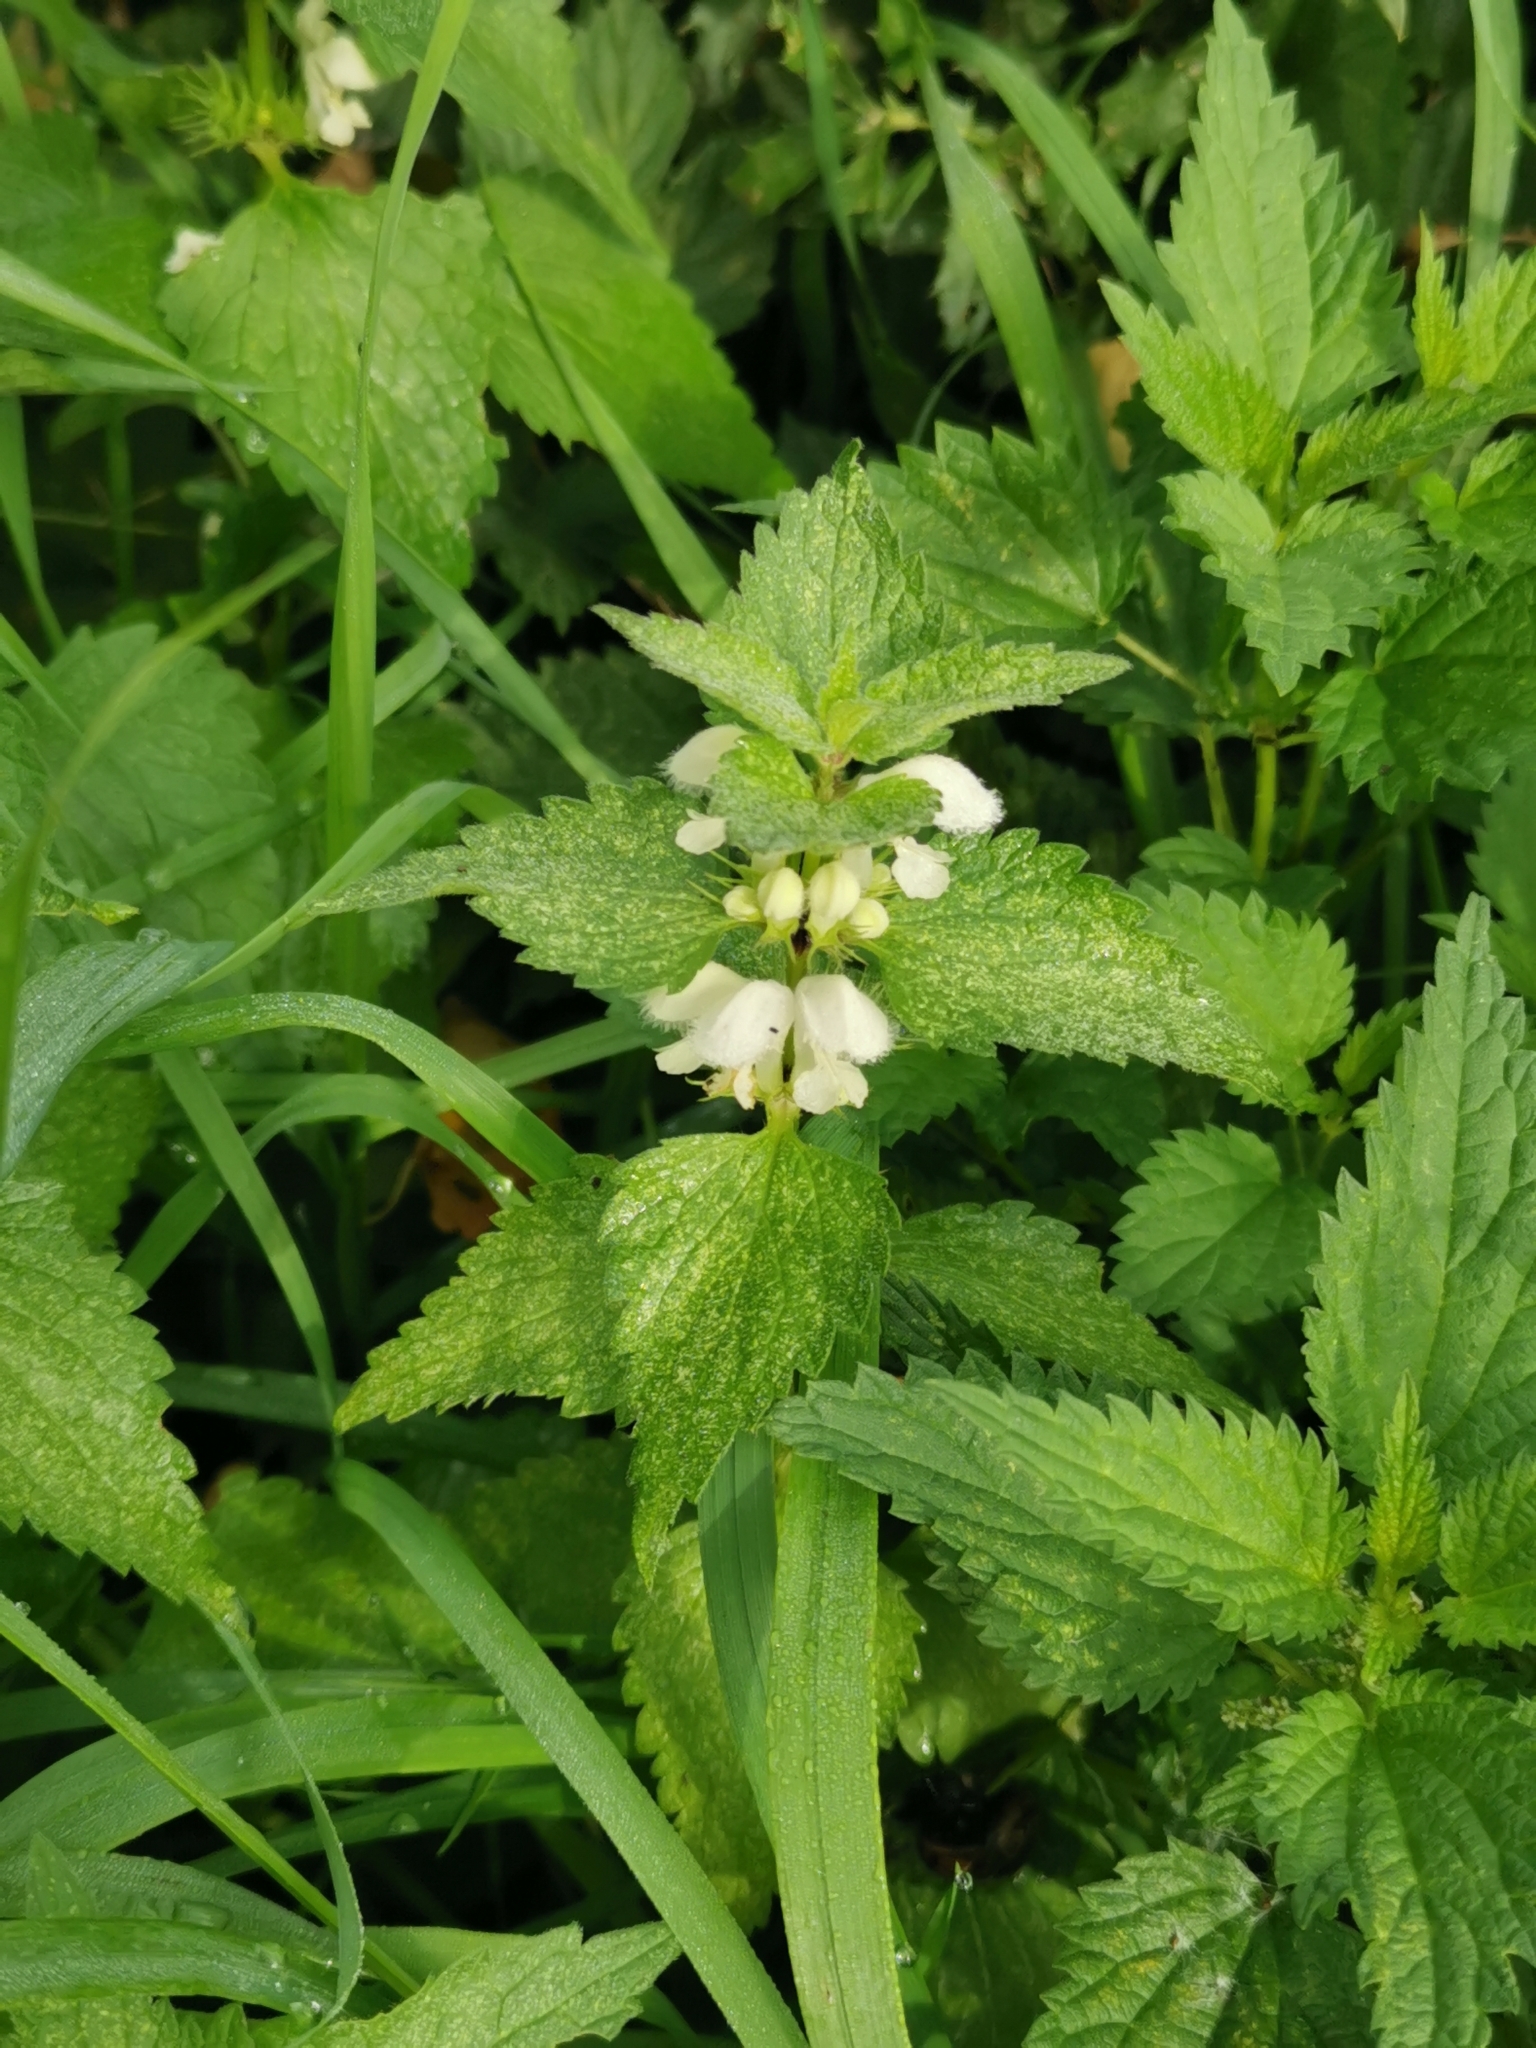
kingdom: Plantae
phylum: Tracheophyta
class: Magnoliopsida
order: Lamiales
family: Lamiaceae
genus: Lamium
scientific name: Lamium album
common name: White dead-nettle
